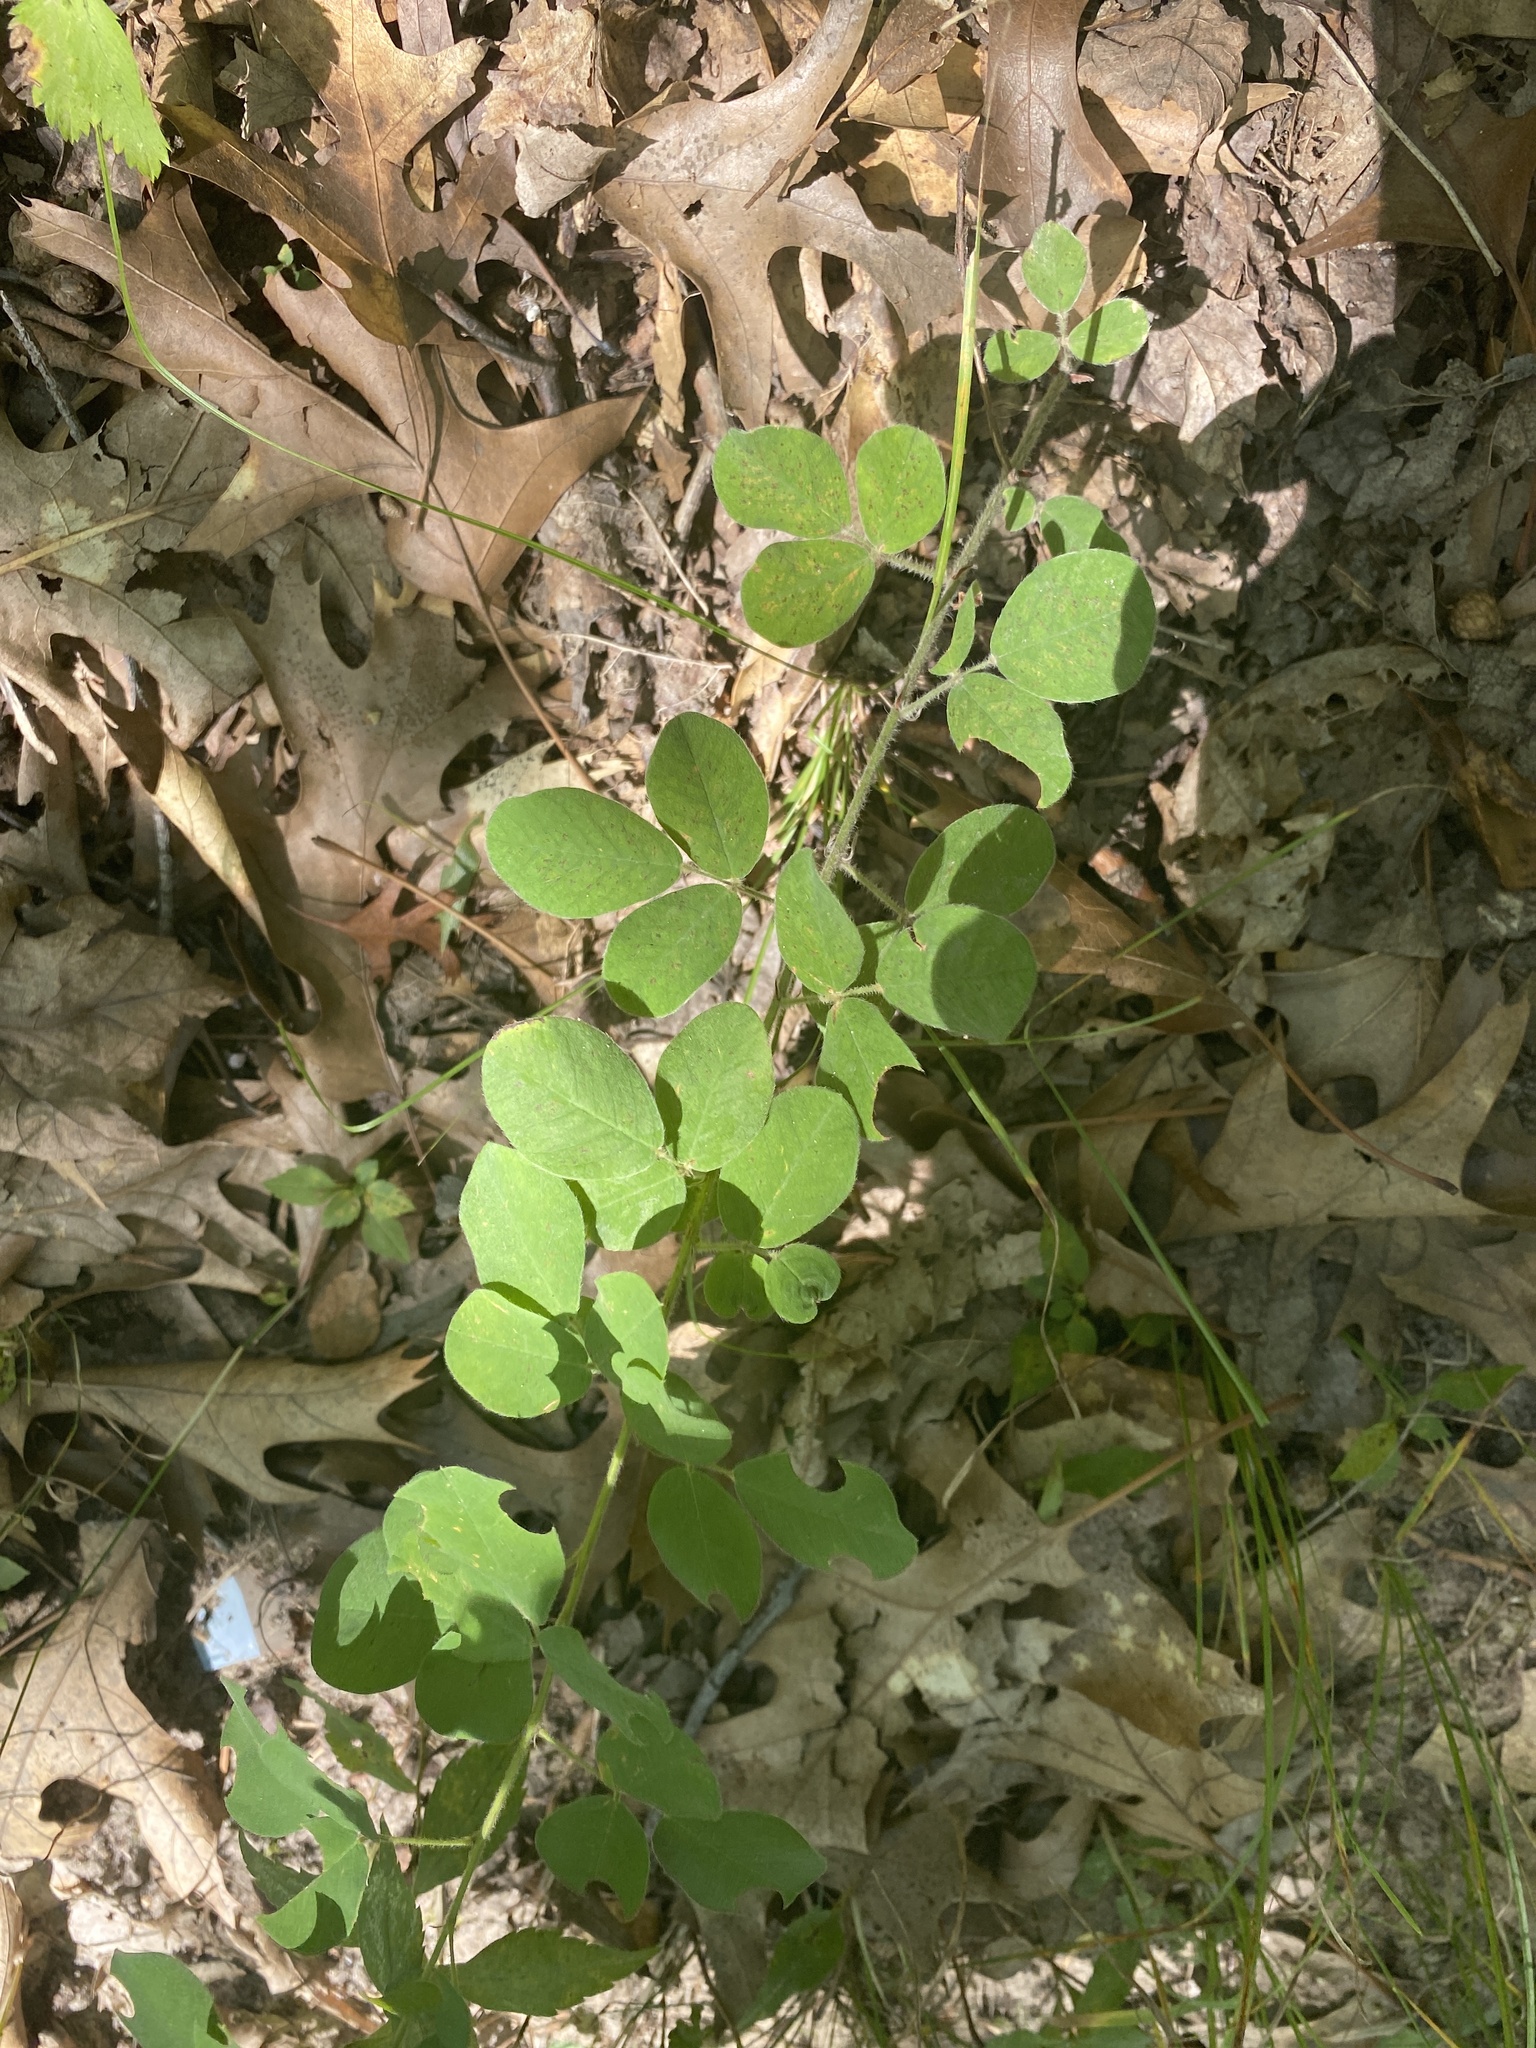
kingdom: Plantae
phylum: Tracheophyta
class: Magnoliopsida
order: Fabales
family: Fabaceae
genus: Lespedeza
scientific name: Lespedeza hirta
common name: Hairy lespedeza
